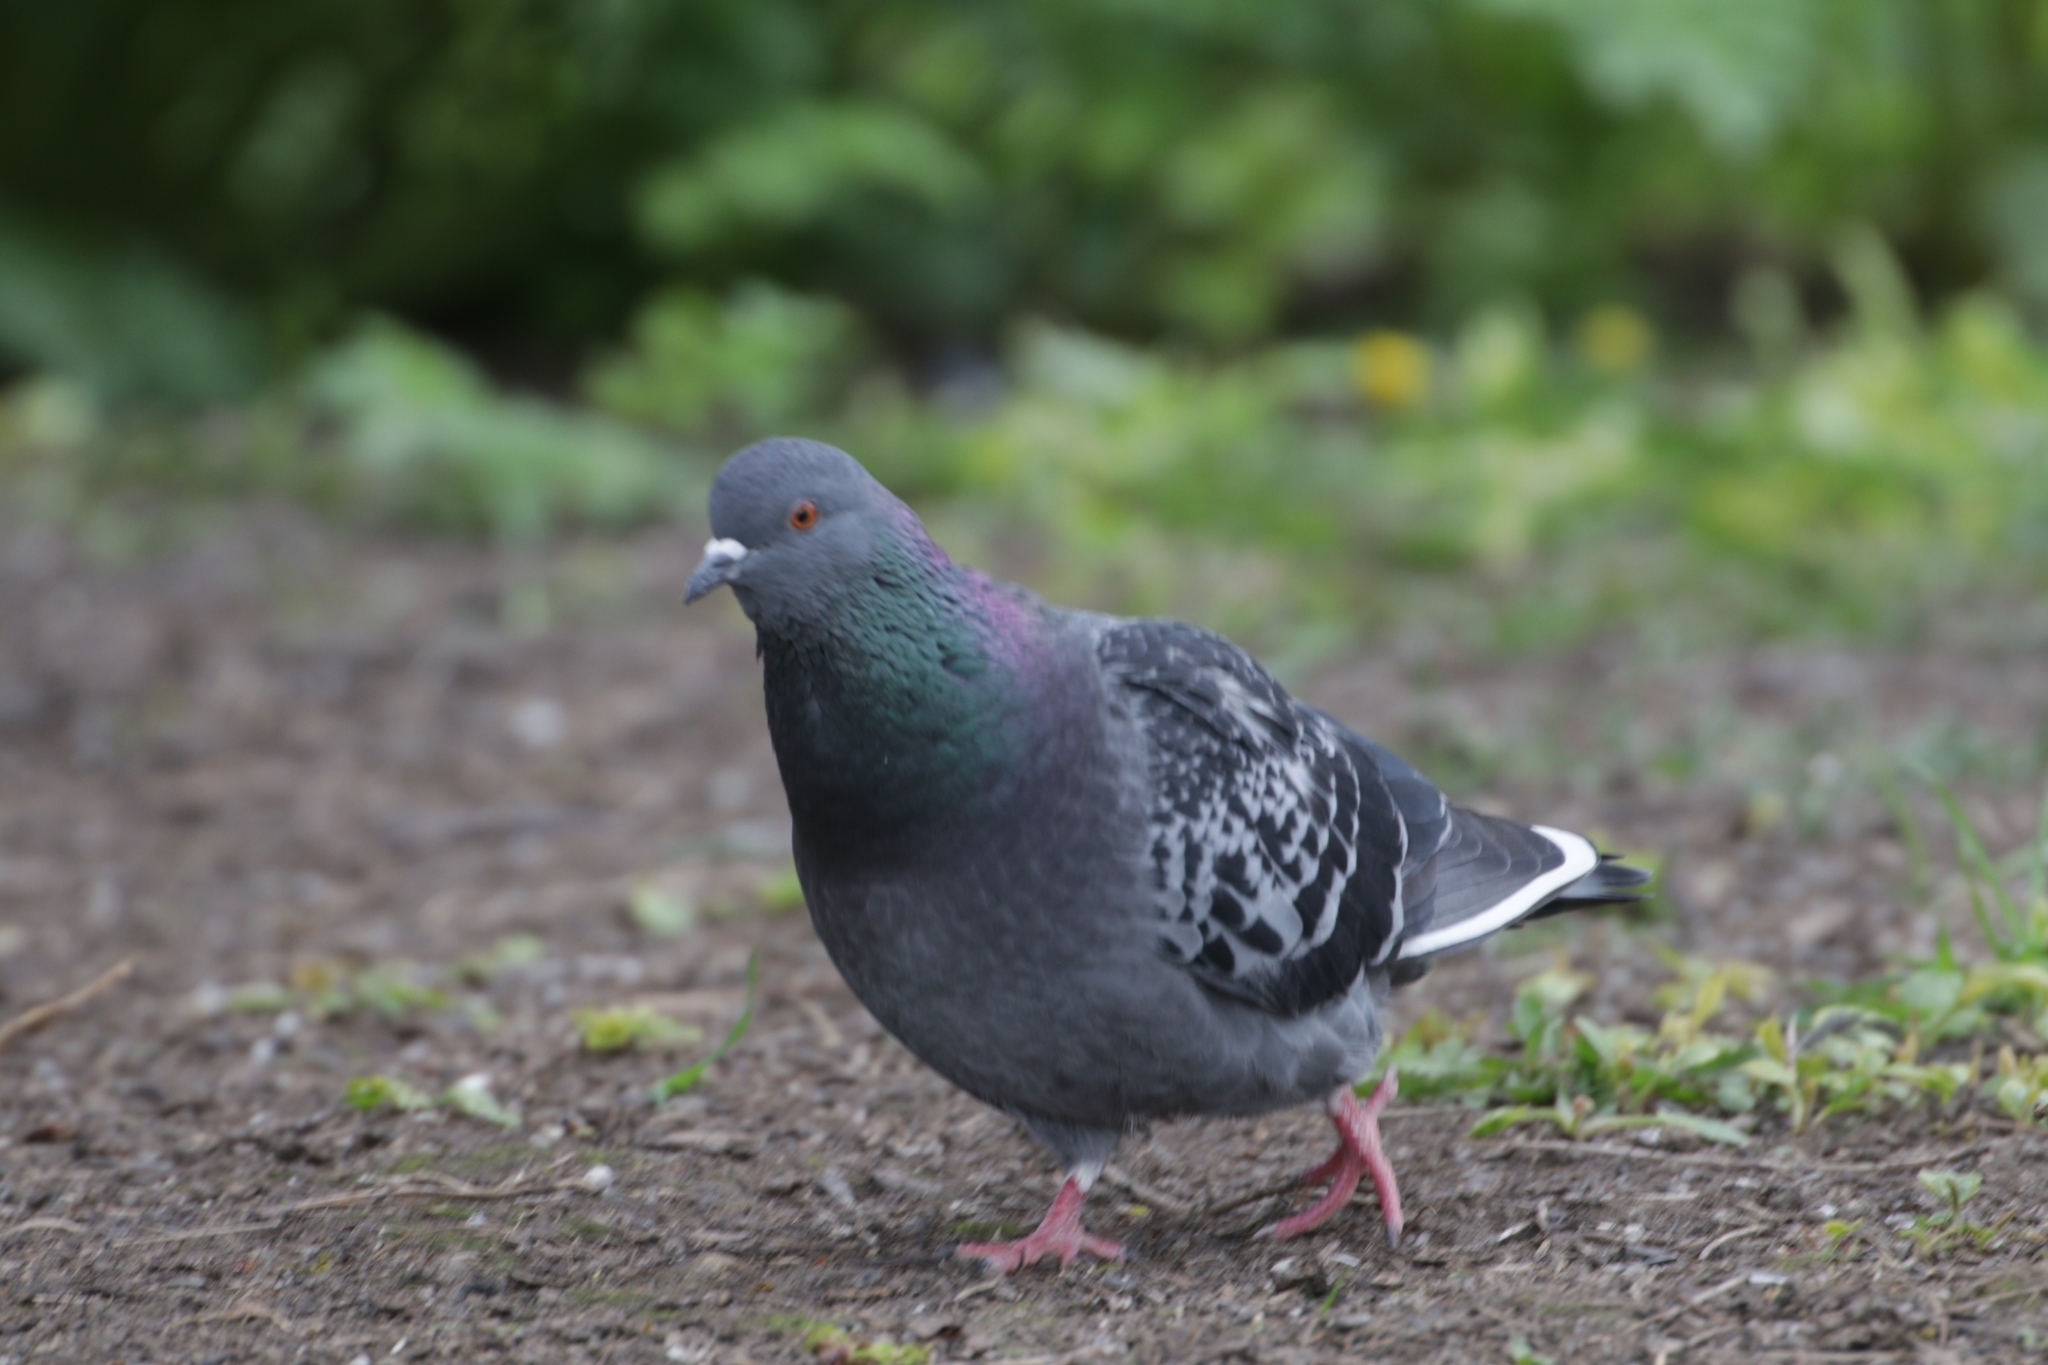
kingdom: Animalia
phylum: Chordata
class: Aves
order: Columbiformes
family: Columbidae
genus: Columba
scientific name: Columba livia
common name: Rock pigeon
